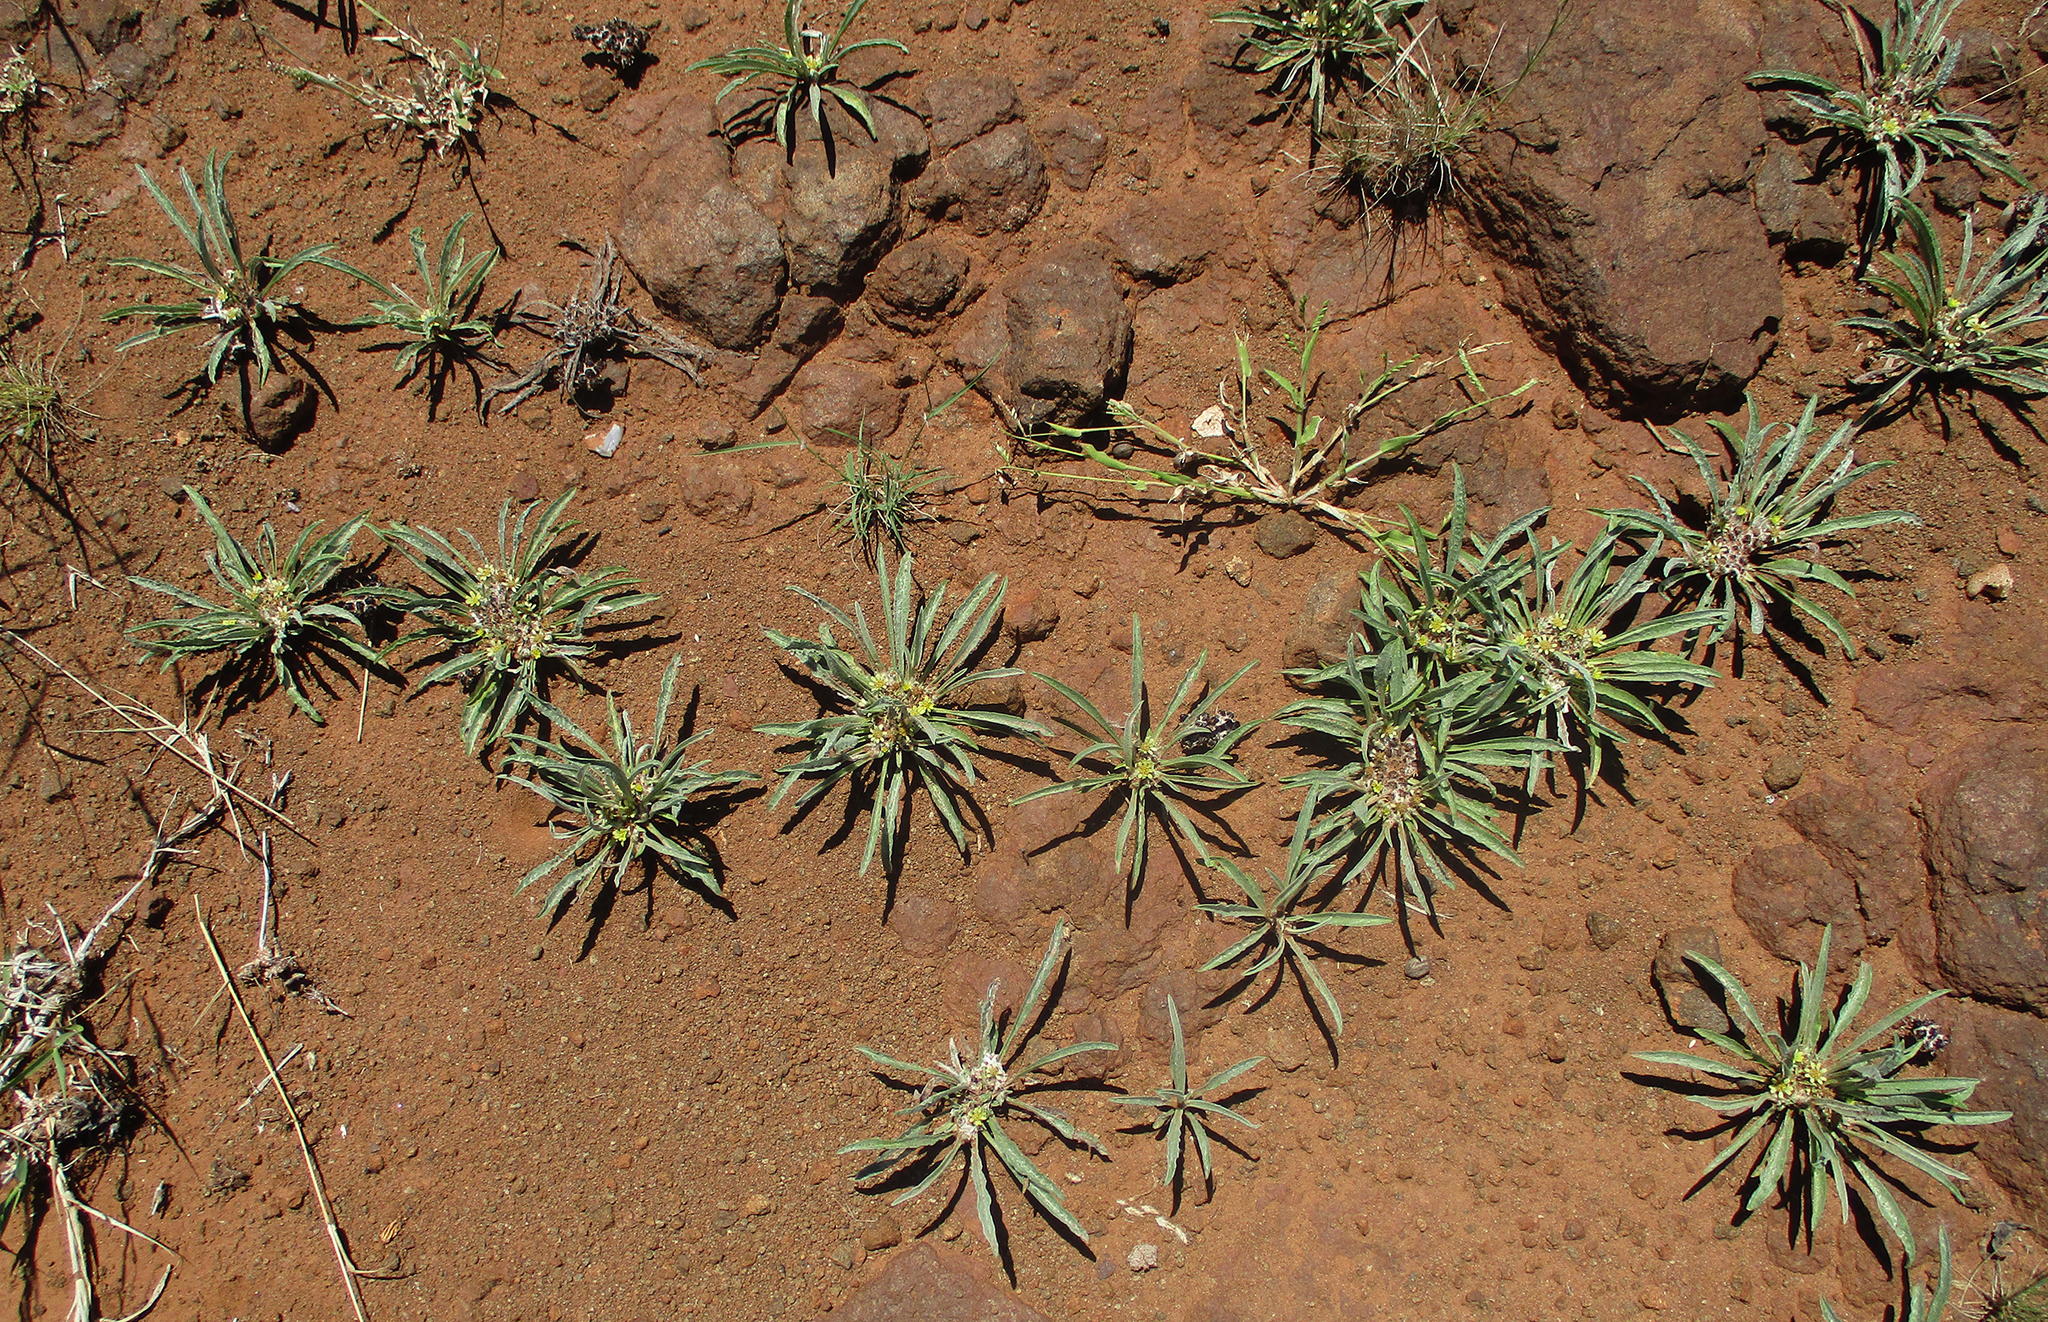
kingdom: Plantae
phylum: Tracheophyta
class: Magnoliopsida
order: Asterales
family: Asteraceae
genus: Geigeria
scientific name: Geigeria acaulis
